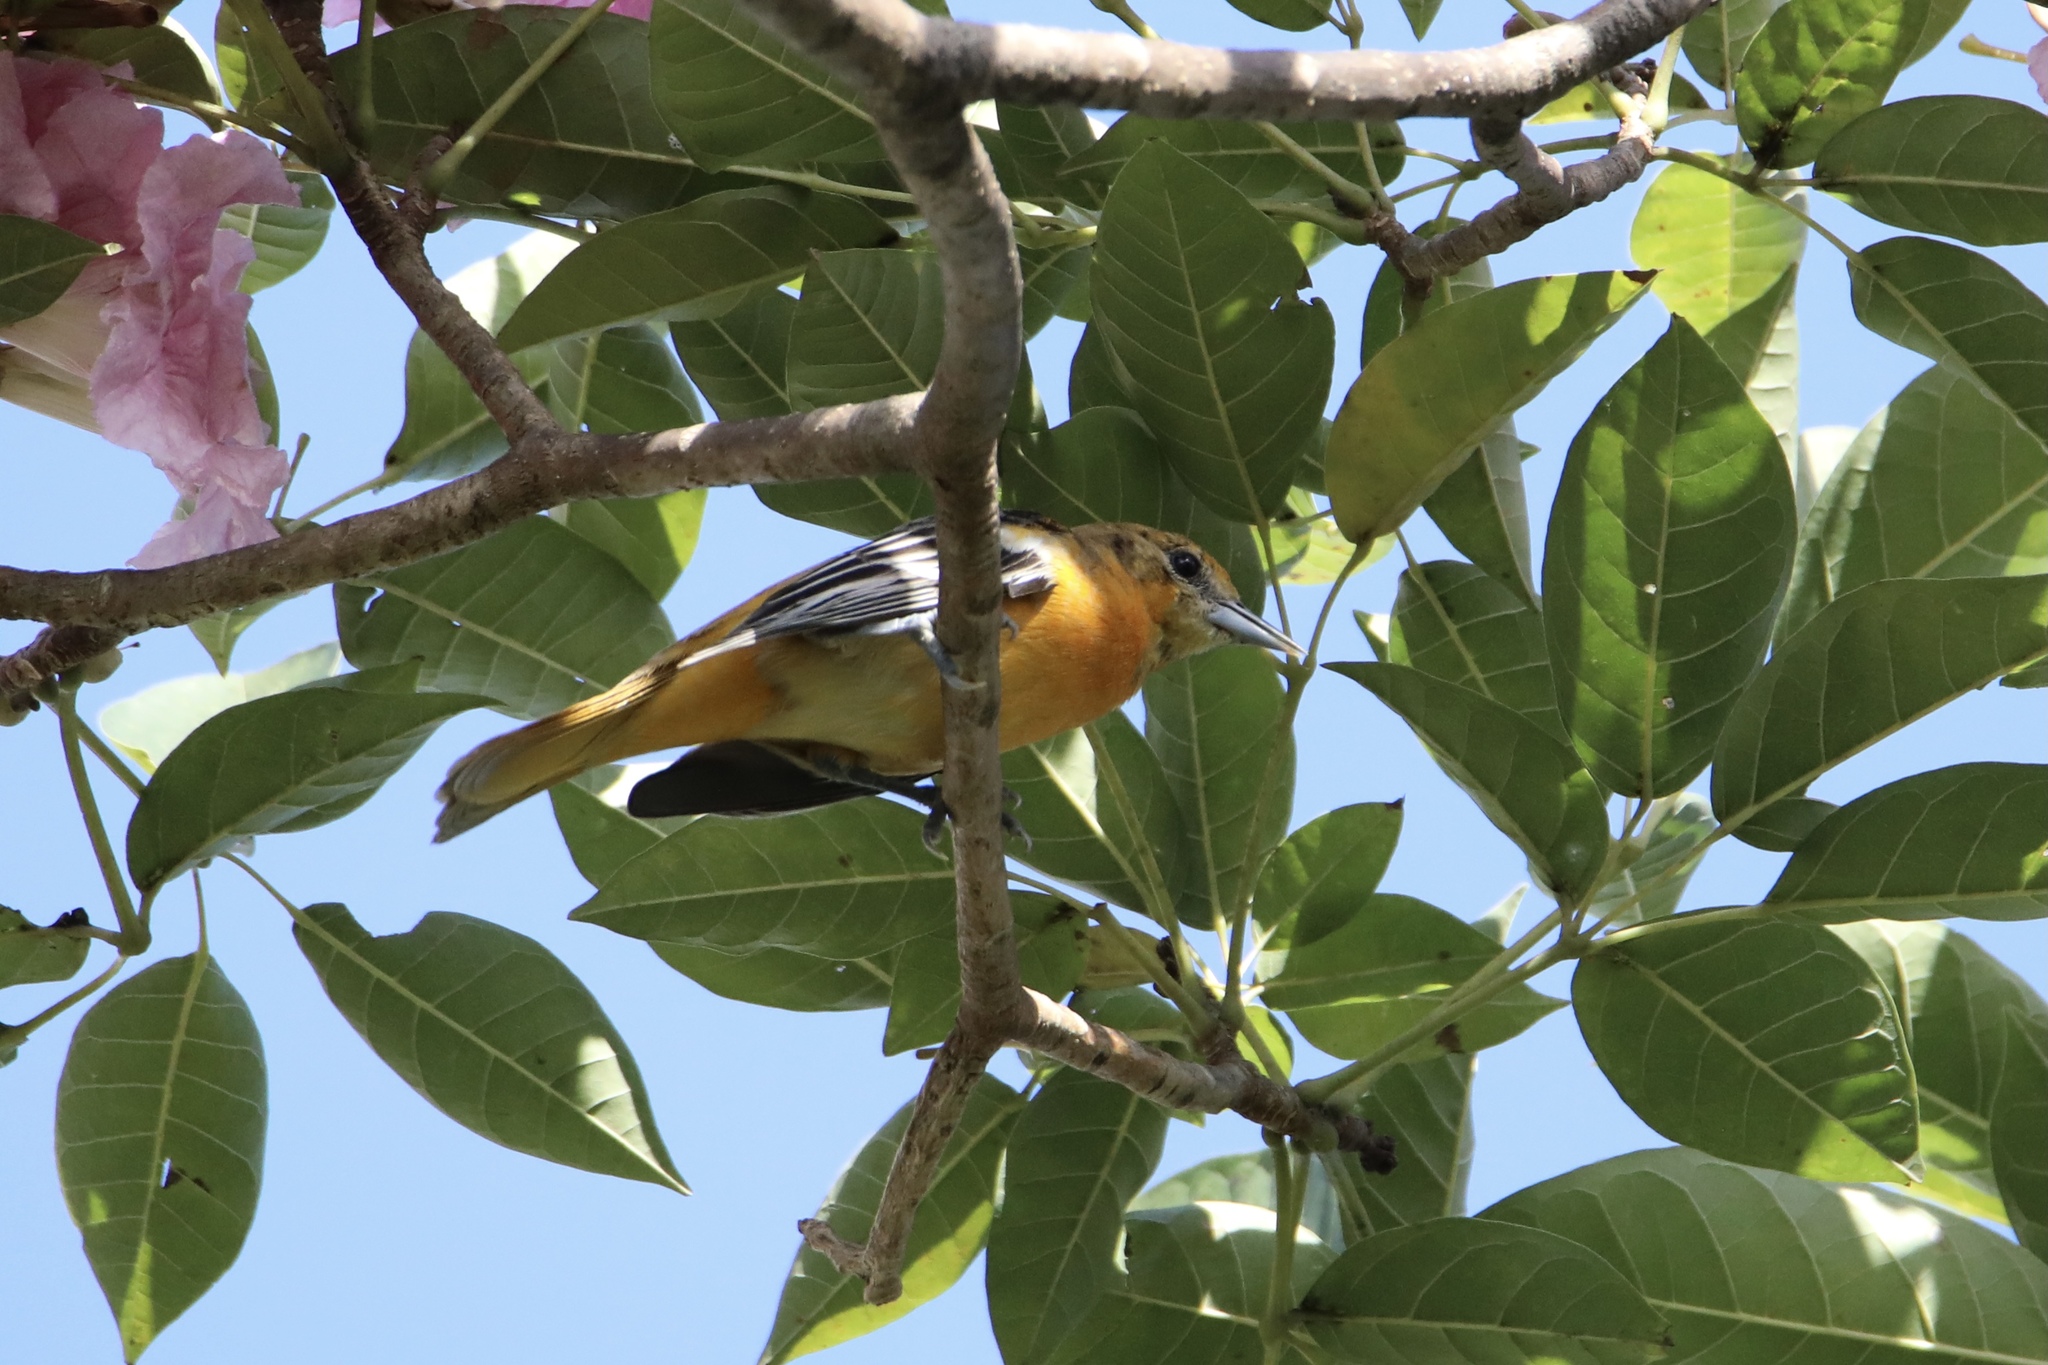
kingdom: Animalia
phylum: Chordata
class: Aves
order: Passeriformes
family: Icteridae
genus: Icterus
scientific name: Icterus galbula
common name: Baltimore oriole
